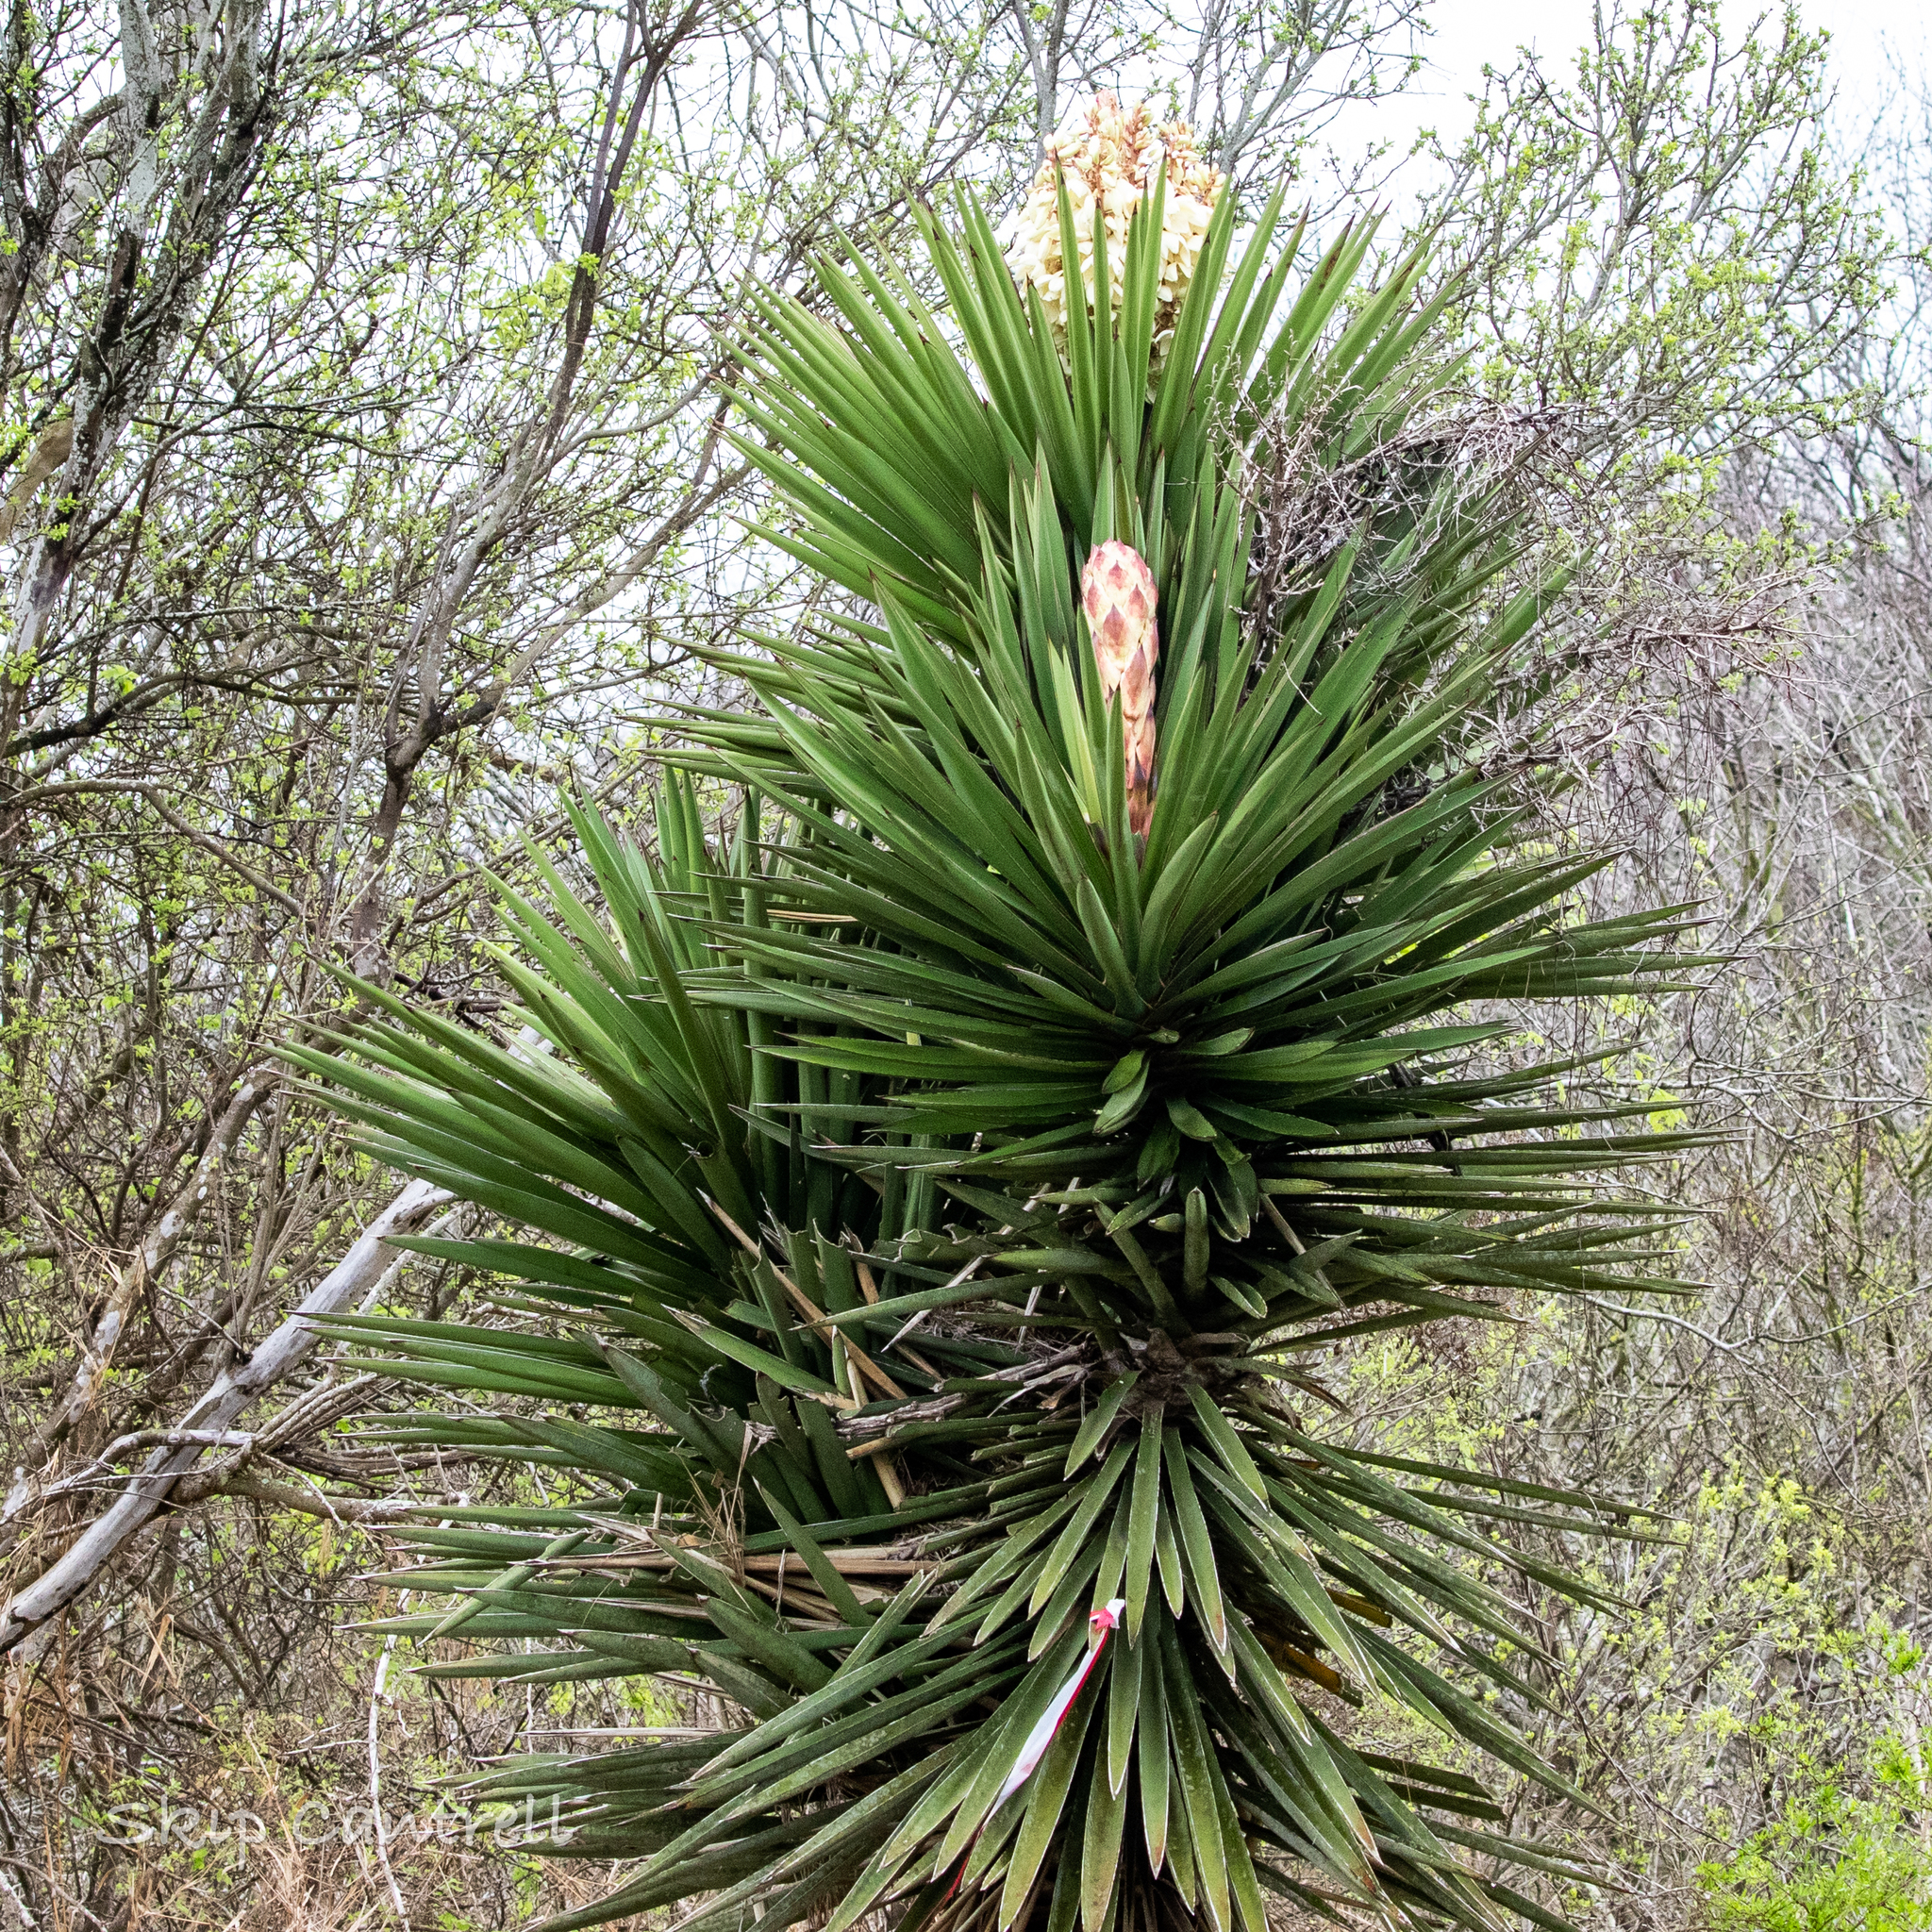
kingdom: Plantae
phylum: Tracheophyta
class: Liliopsida
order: Asparagales
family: Asparagaceae
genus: Yucca
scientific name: Yucca treculiana
